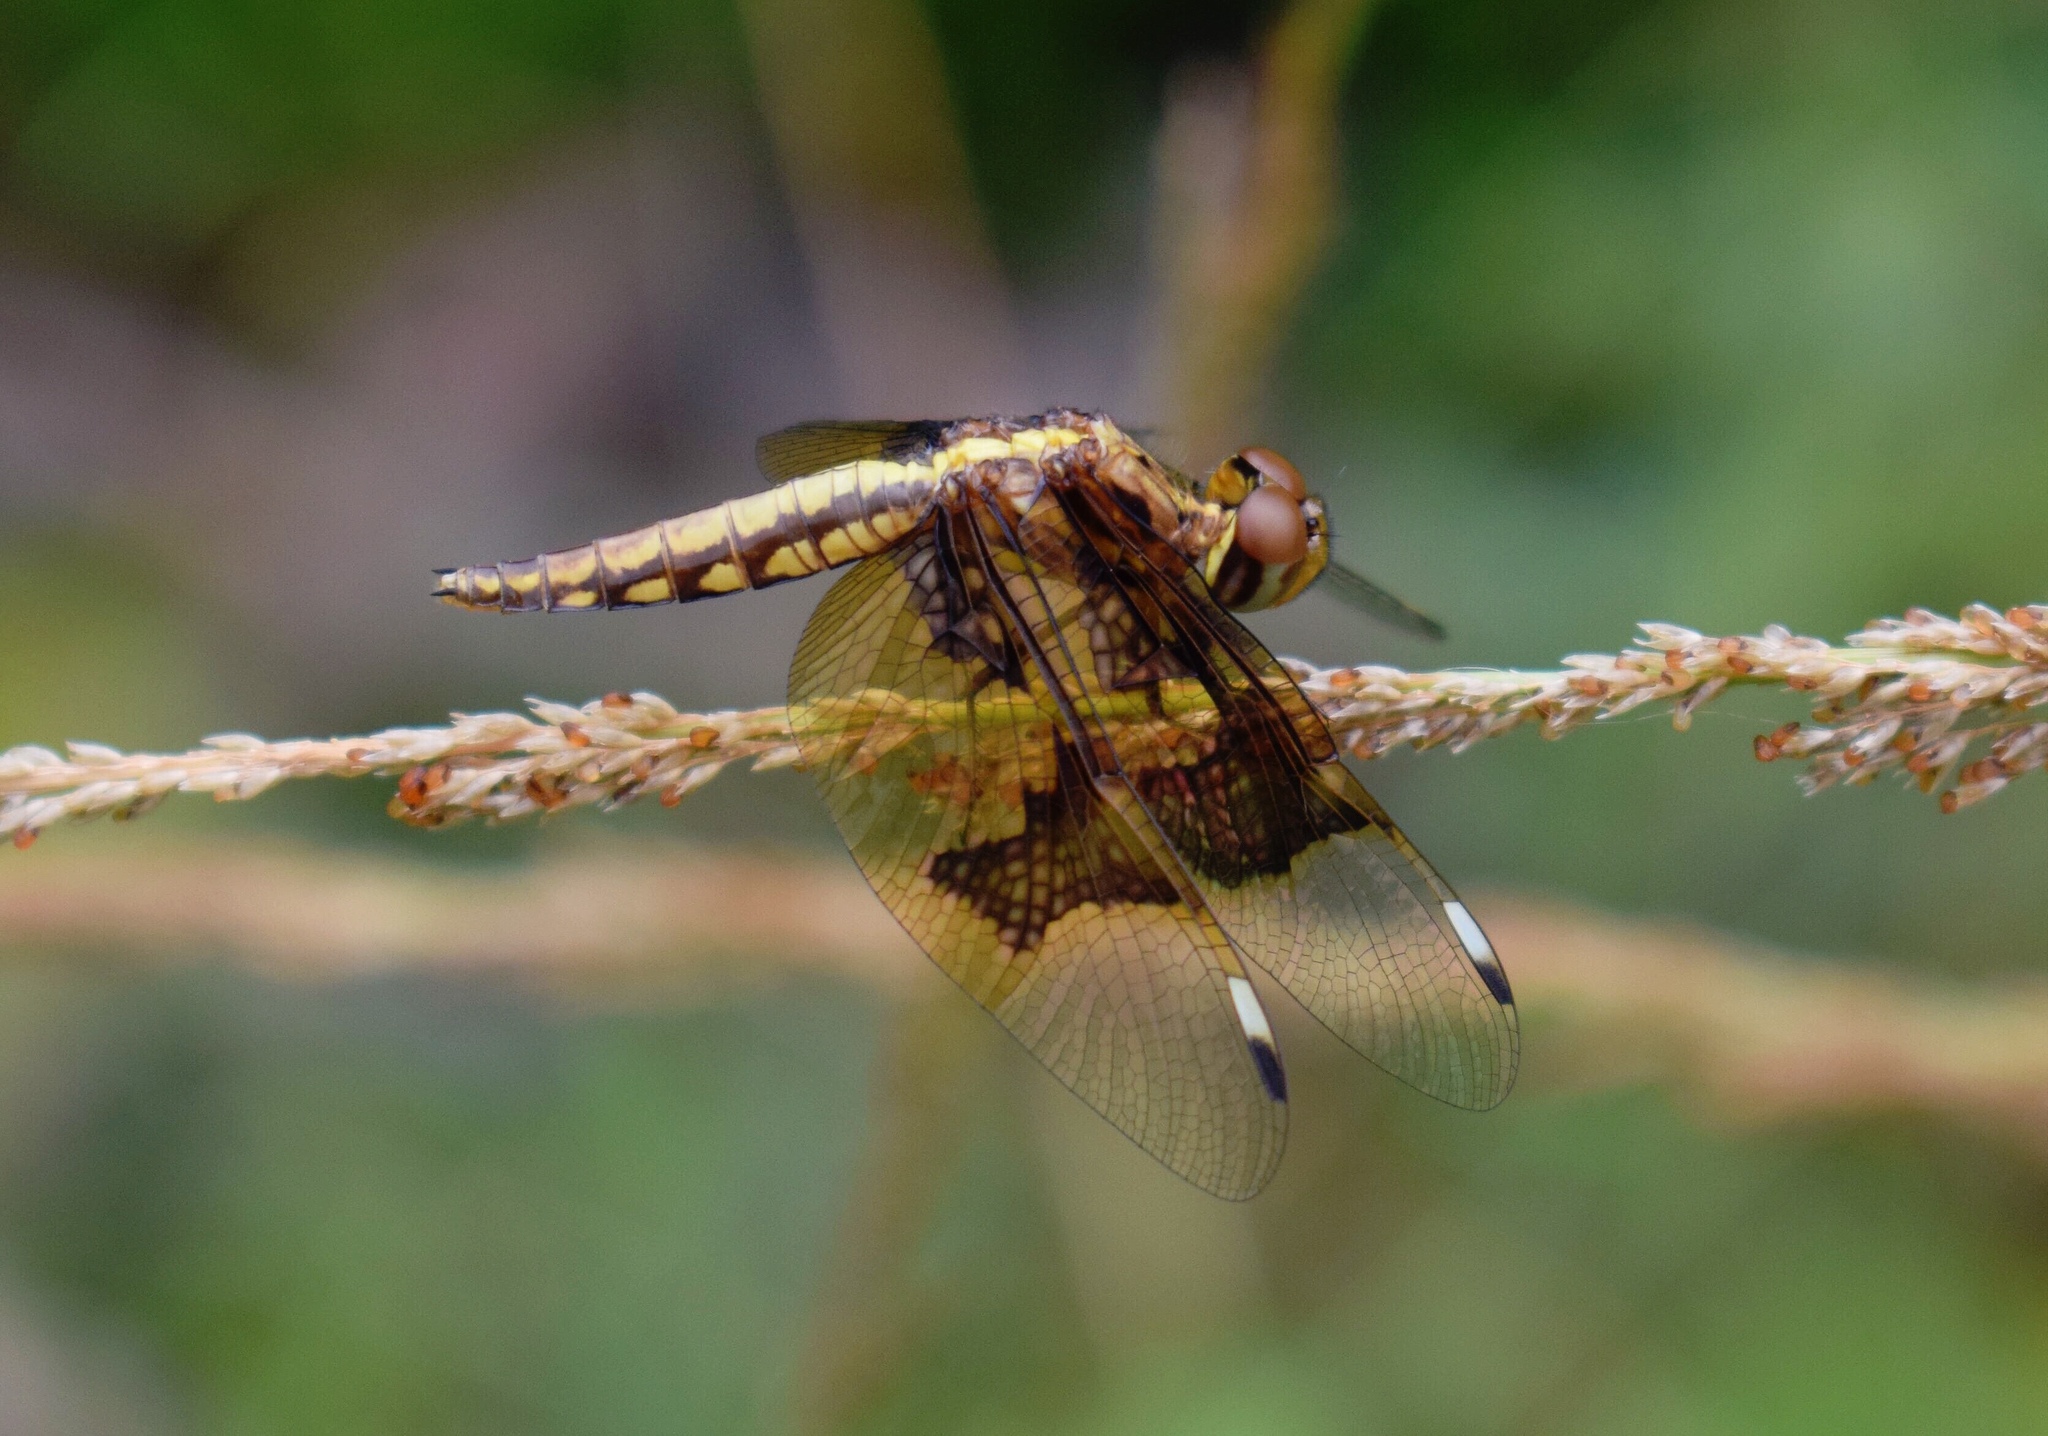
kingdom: Animalia
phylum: Arthropoda
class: Insecta
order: Odonata
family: Libellulidae
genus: Palpopleura
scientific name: Palpopleura lucia
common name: Lucia widow
